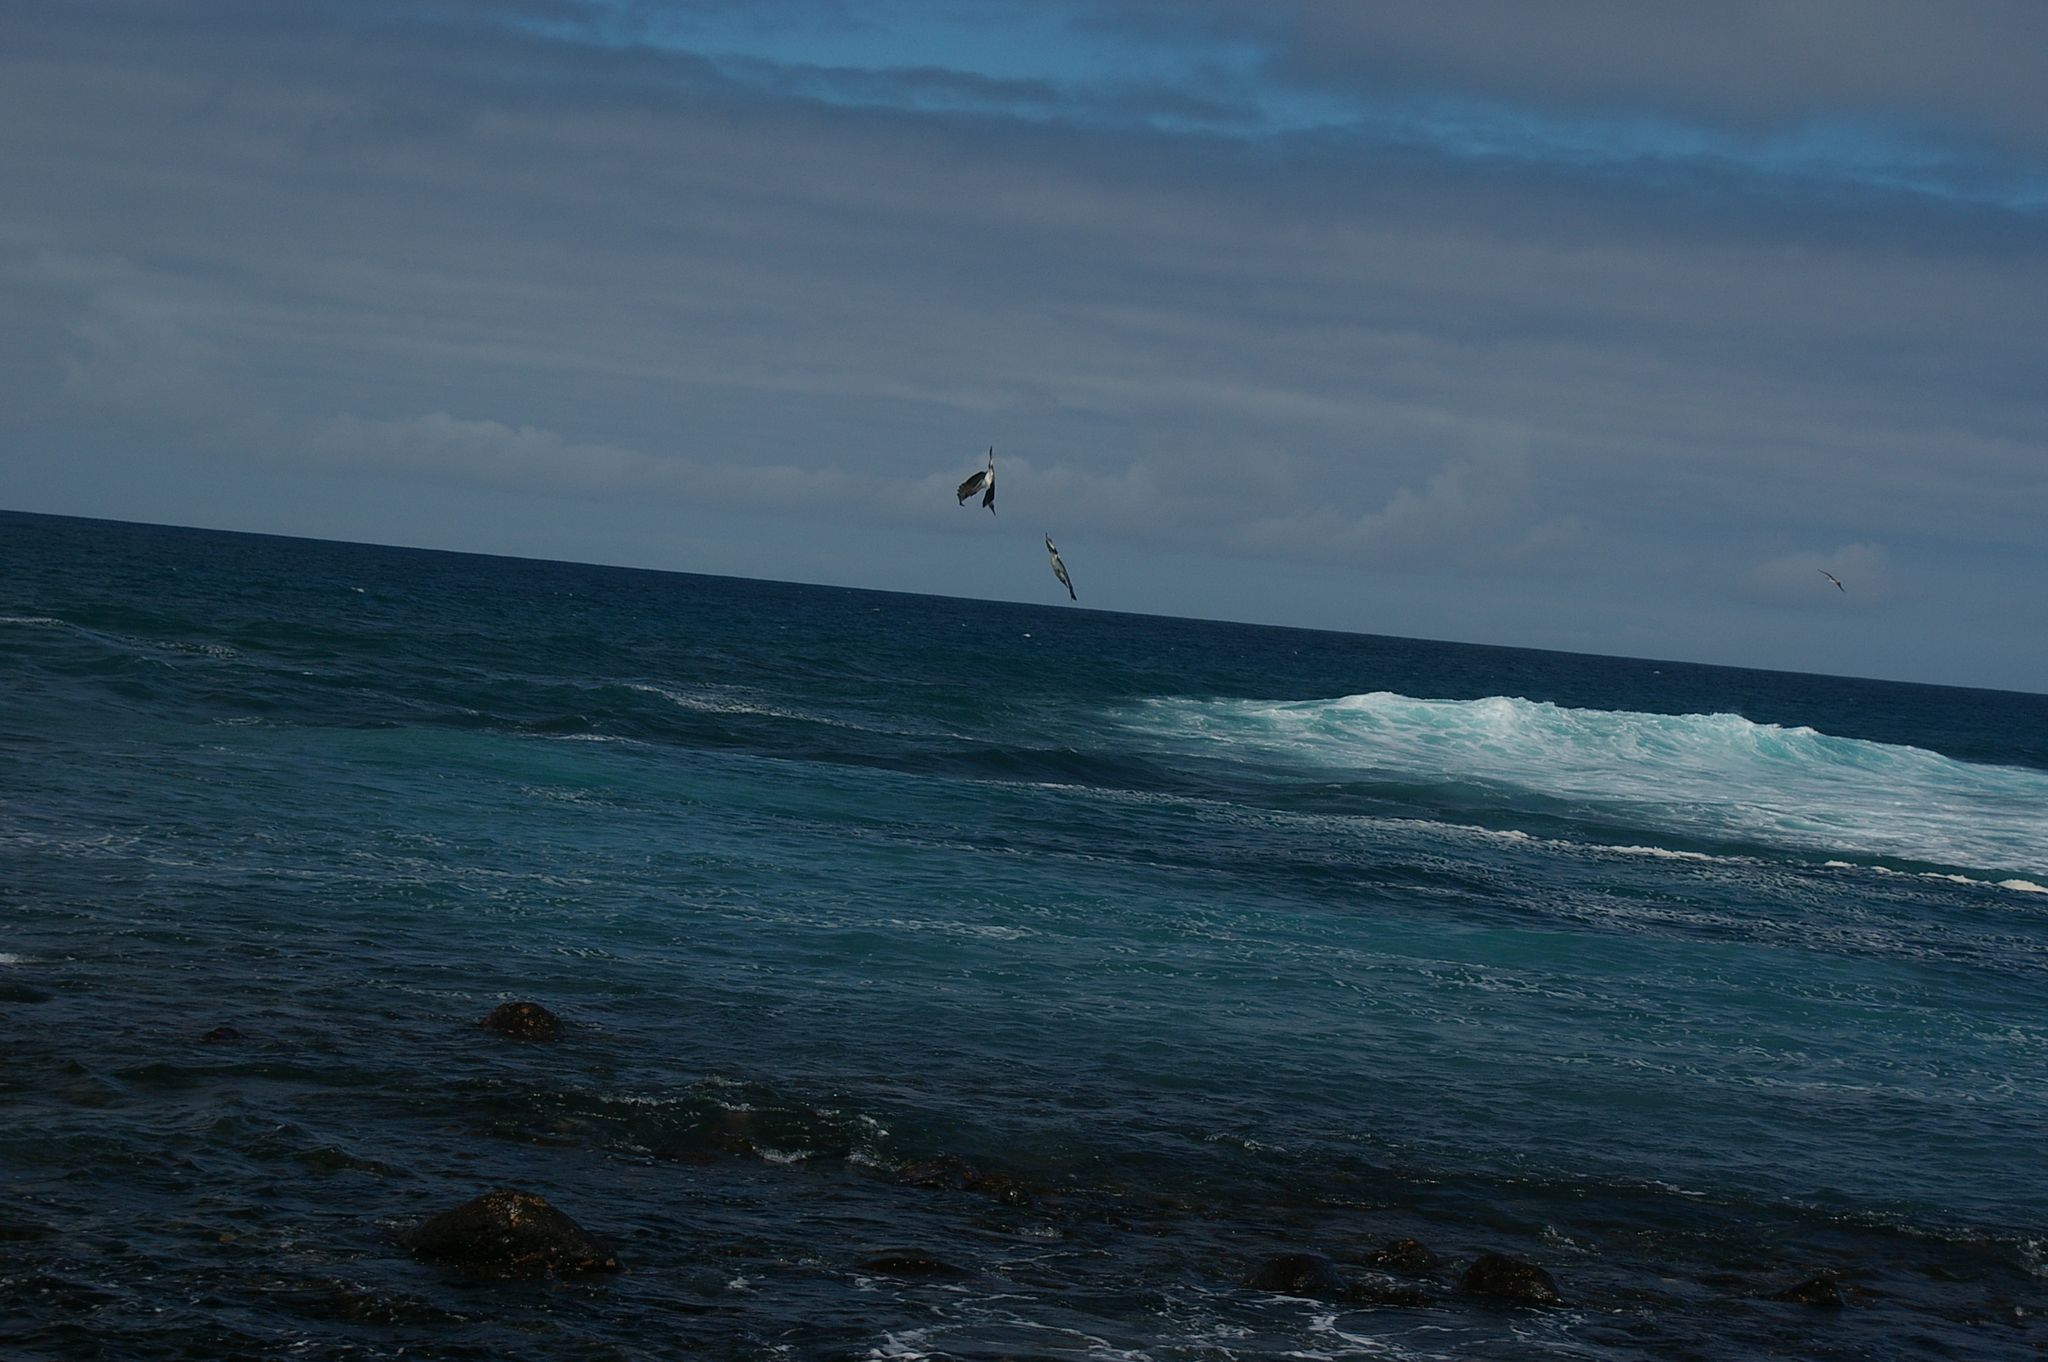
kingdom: Animalia
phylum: Chordata
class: Aves
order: Suliformes
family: Sulidae
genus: Sula
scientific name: Sula nebouxii
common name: Blue-footed booby
